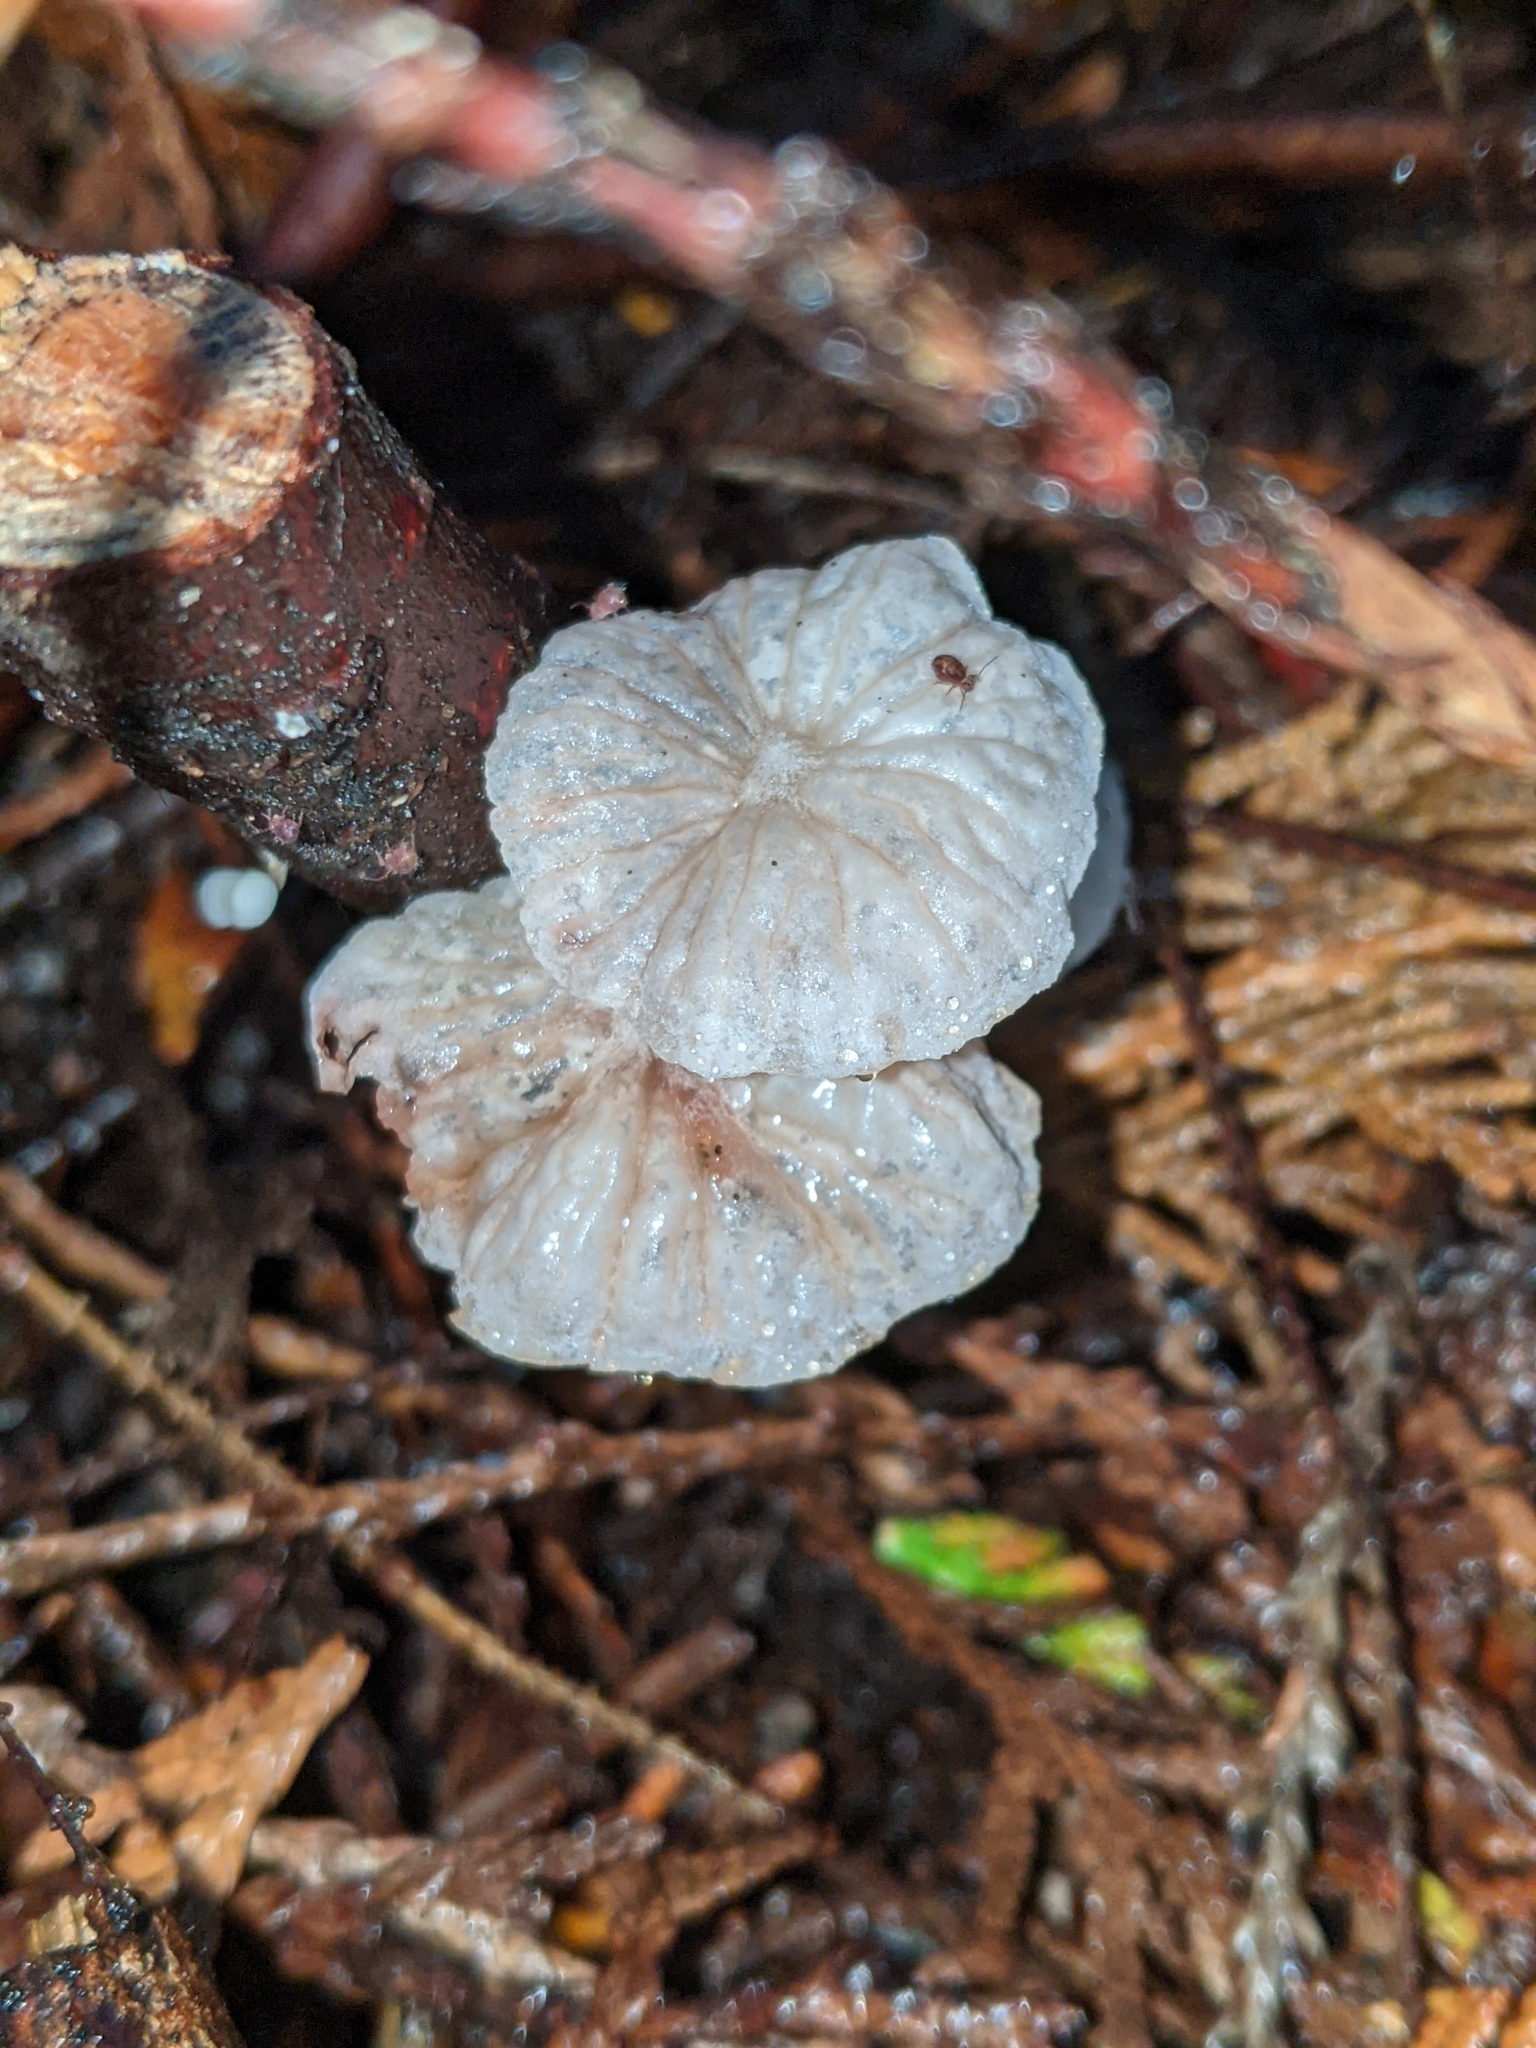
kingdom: Fungi
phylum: Basidiomycota
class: Agaricomycetes
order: Agaricales
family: Omphalotaceae
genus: Marasmiellus
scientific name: Marasmiellus candidus
